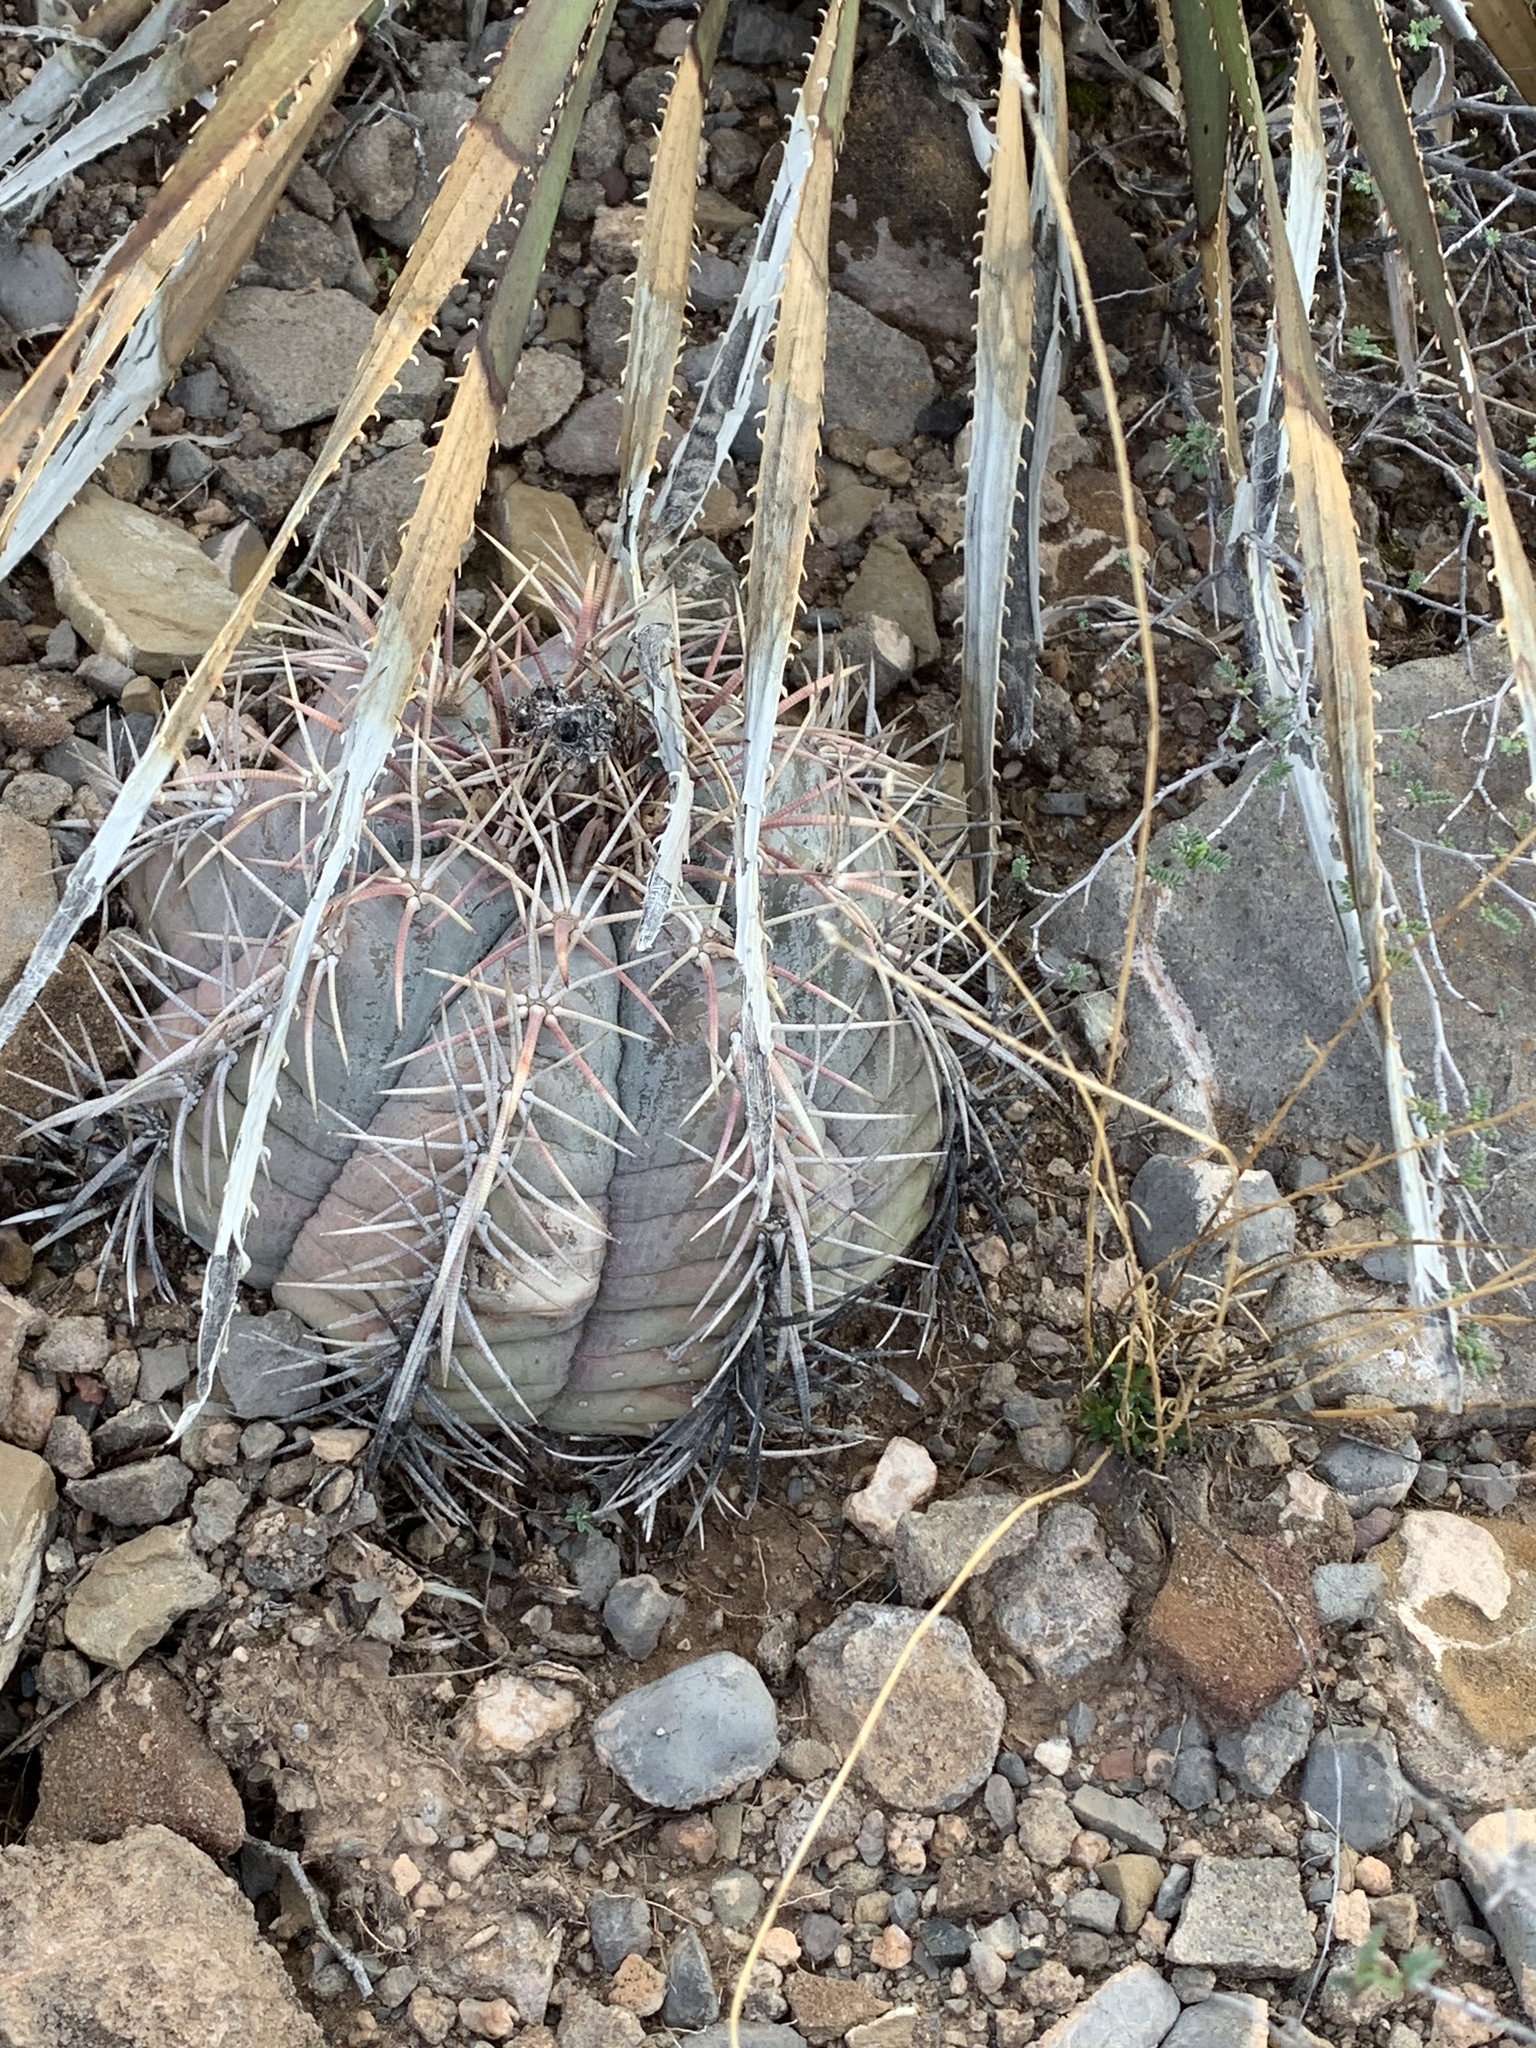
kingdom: Plantae
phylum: Tracheophyta
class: Magnoliopsida
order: Caryophyllales
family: Cactaceae
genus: Echinocactus
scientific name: Echinocactus horizonthalonius
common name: Devilshead
